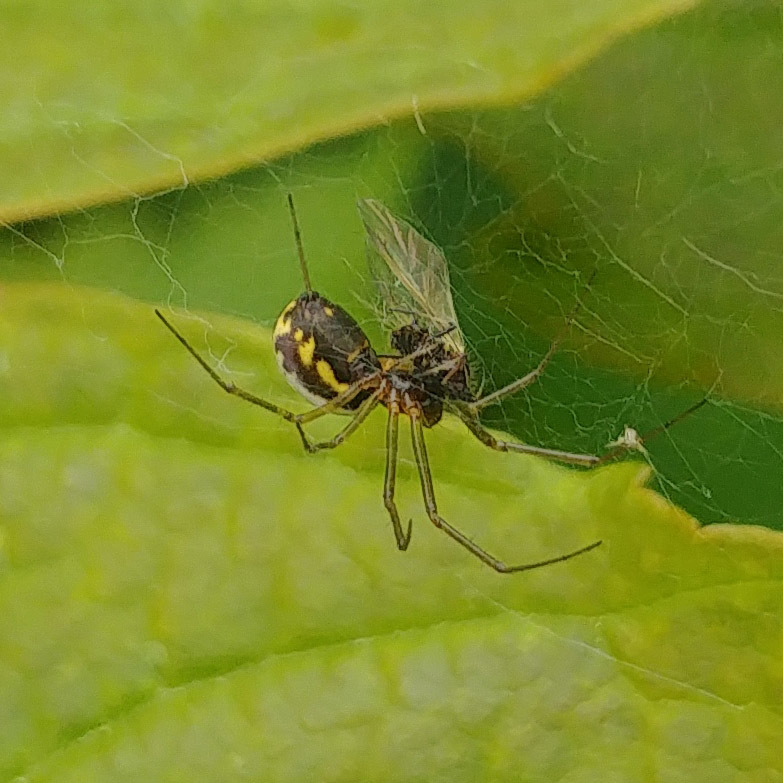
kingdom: Animalia
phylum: Arthropoda
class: Arachnida
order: Araneae
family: Linyphiidae
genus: Neriene
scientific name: Neriene peltata
